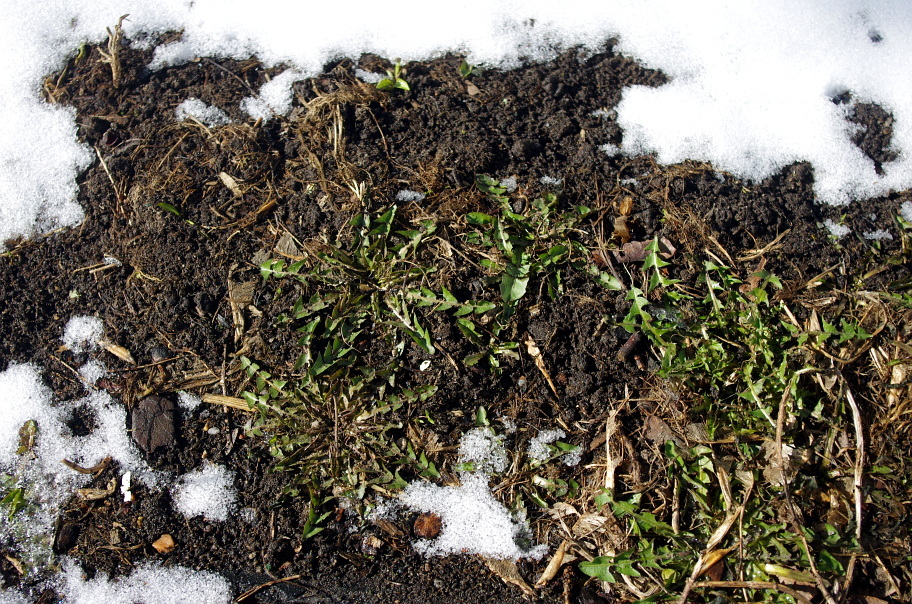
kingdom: Plantae
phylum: Tracheophyta
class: Magnoliopsida
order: Asterales
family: Asteraceae
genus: Taraxacum
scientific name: Taraxacum officinale
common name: Common dandelion
